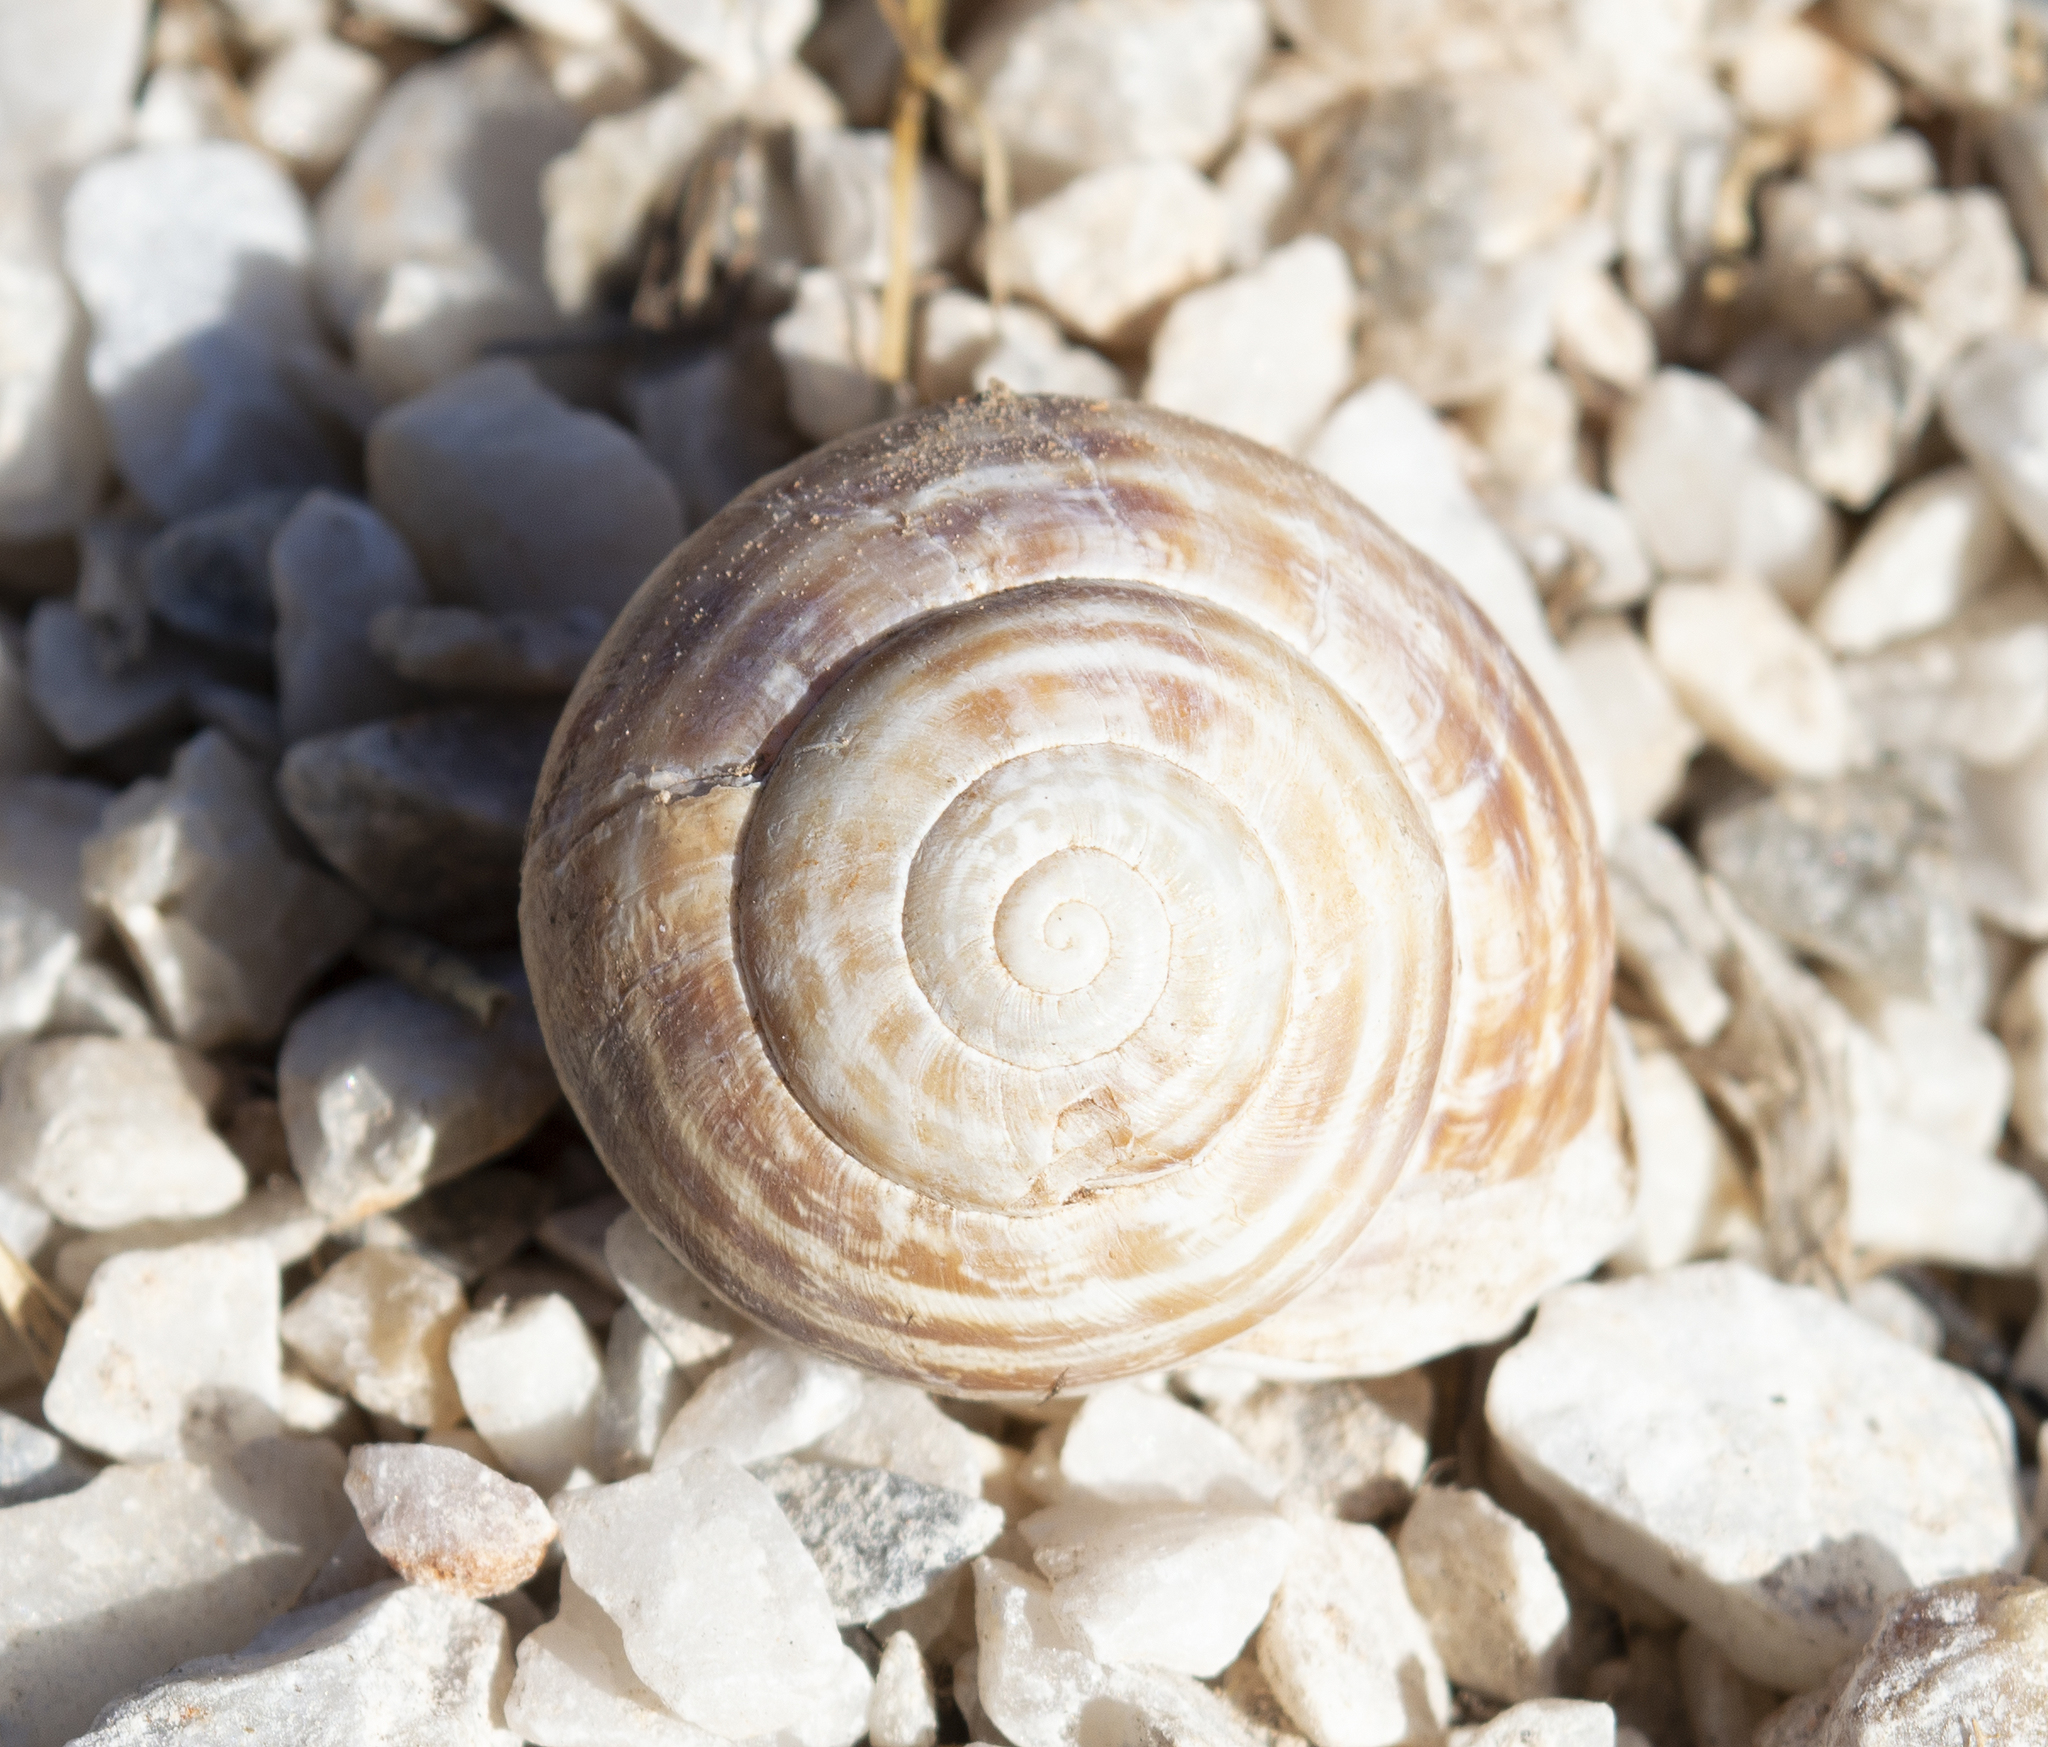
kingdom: Animalia
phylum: Mollusca
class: Gastropoda
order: Stylommatophora
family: Helicidae
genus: Eobania
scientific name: Eobania vermiculata
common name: Chocolateband snail
